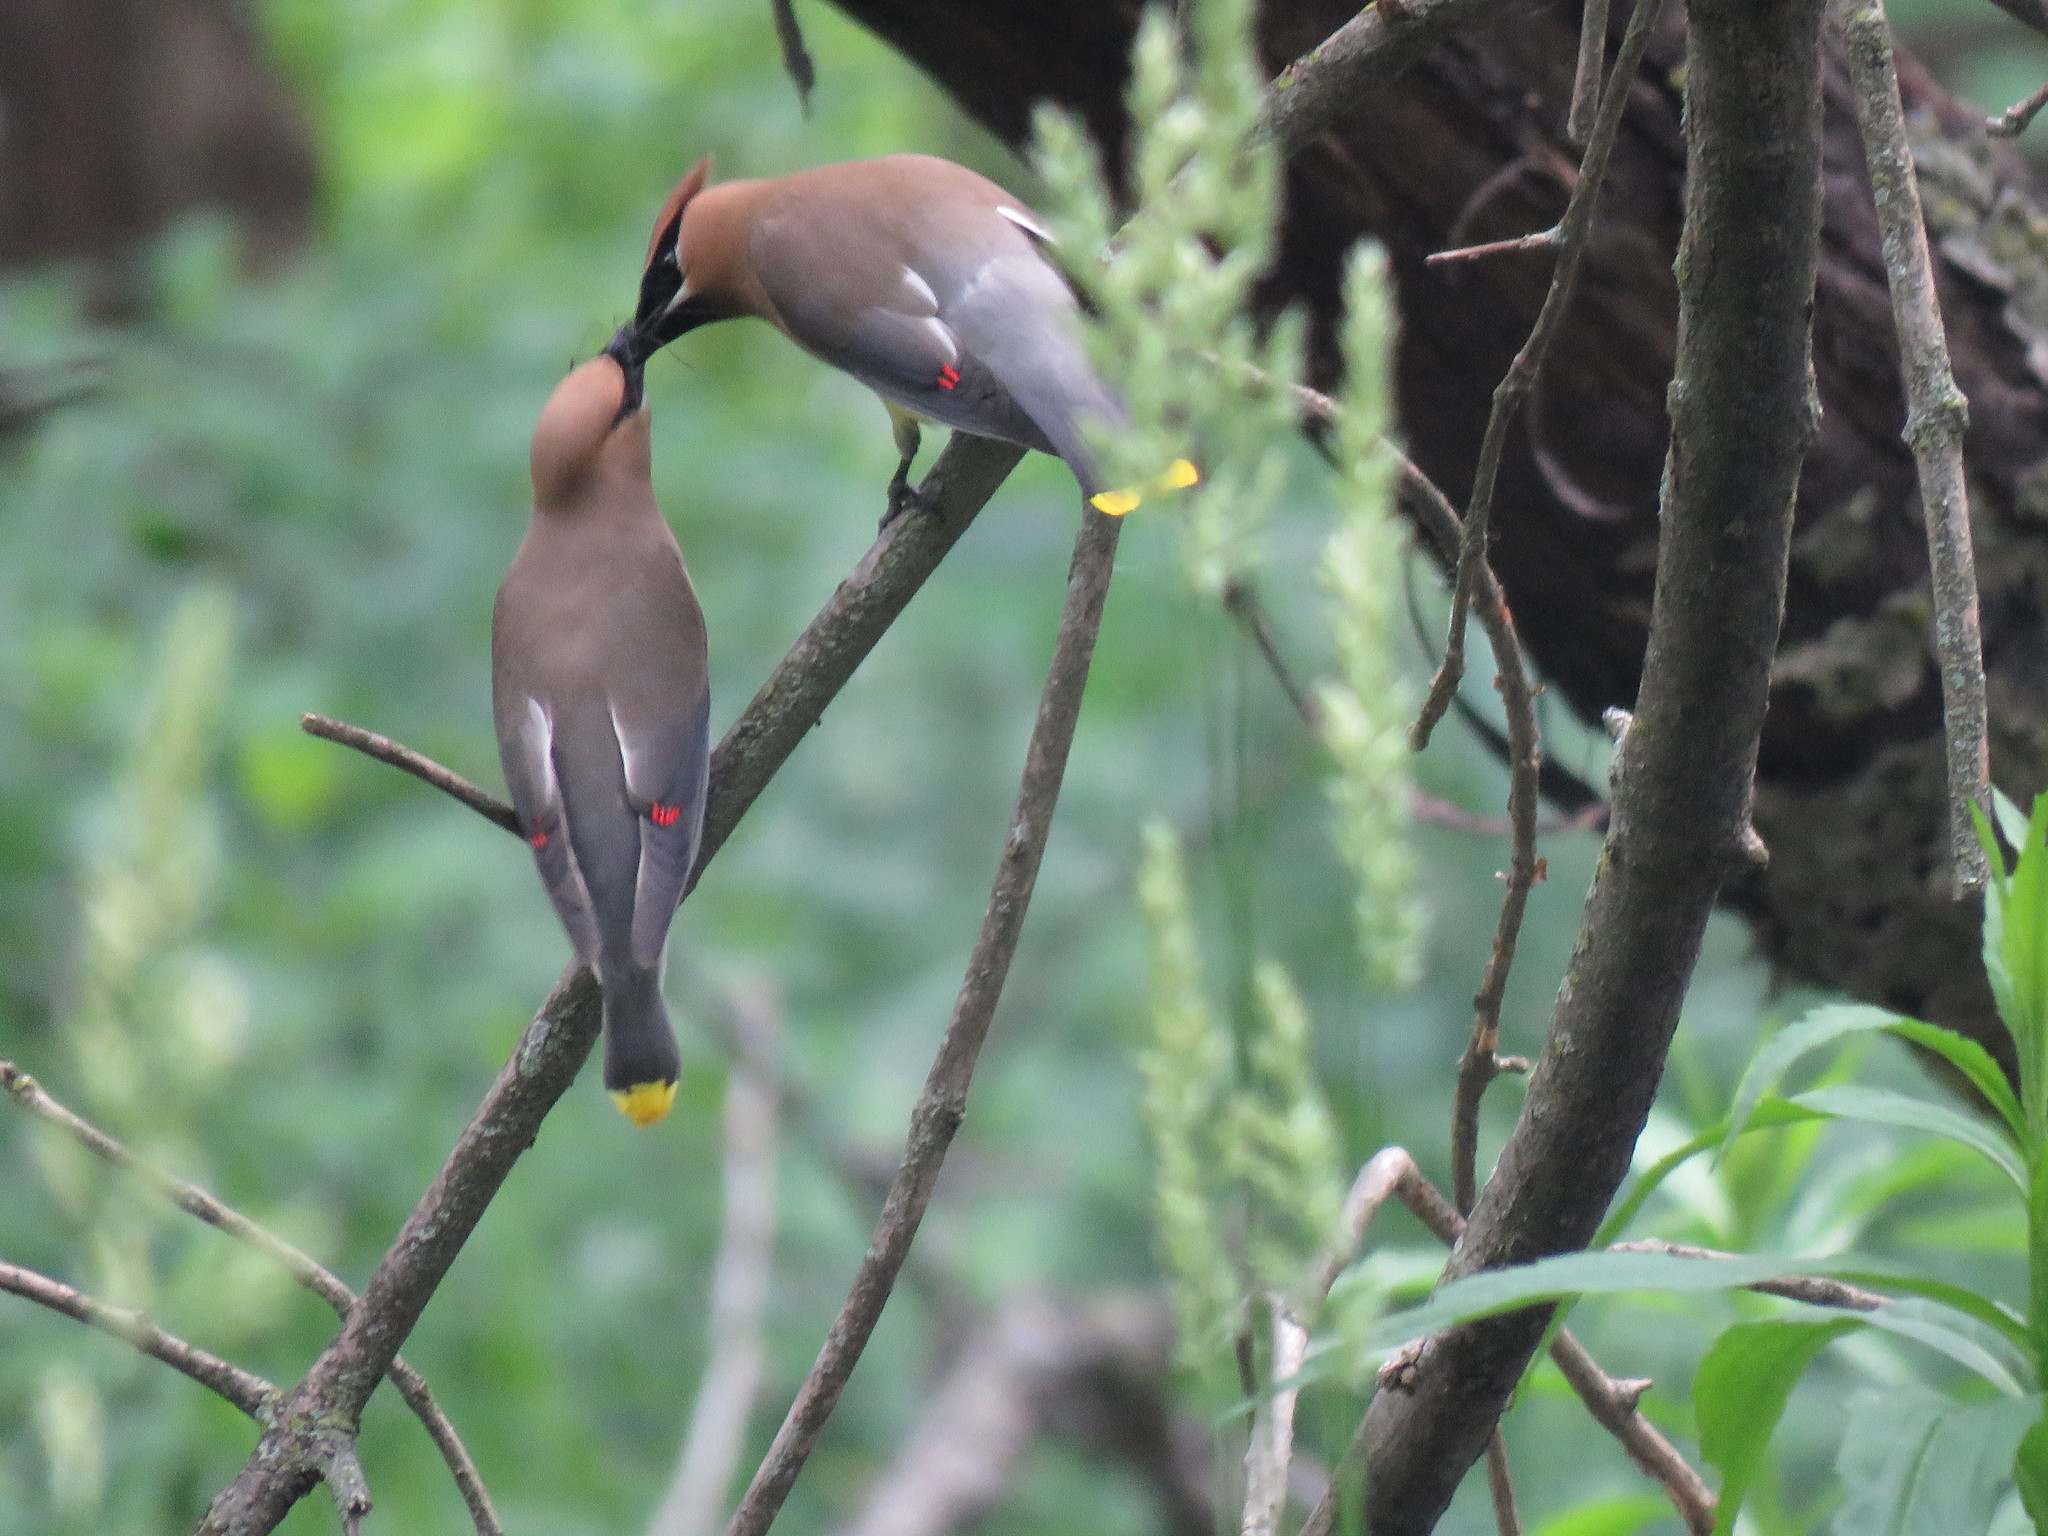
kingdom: Animalia
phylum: Chordata
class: Aves
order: Passeriformes
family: Bombycillidae
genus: Bombycilla
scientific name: Bombycilla cedrorum
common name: Cedar waxwing
